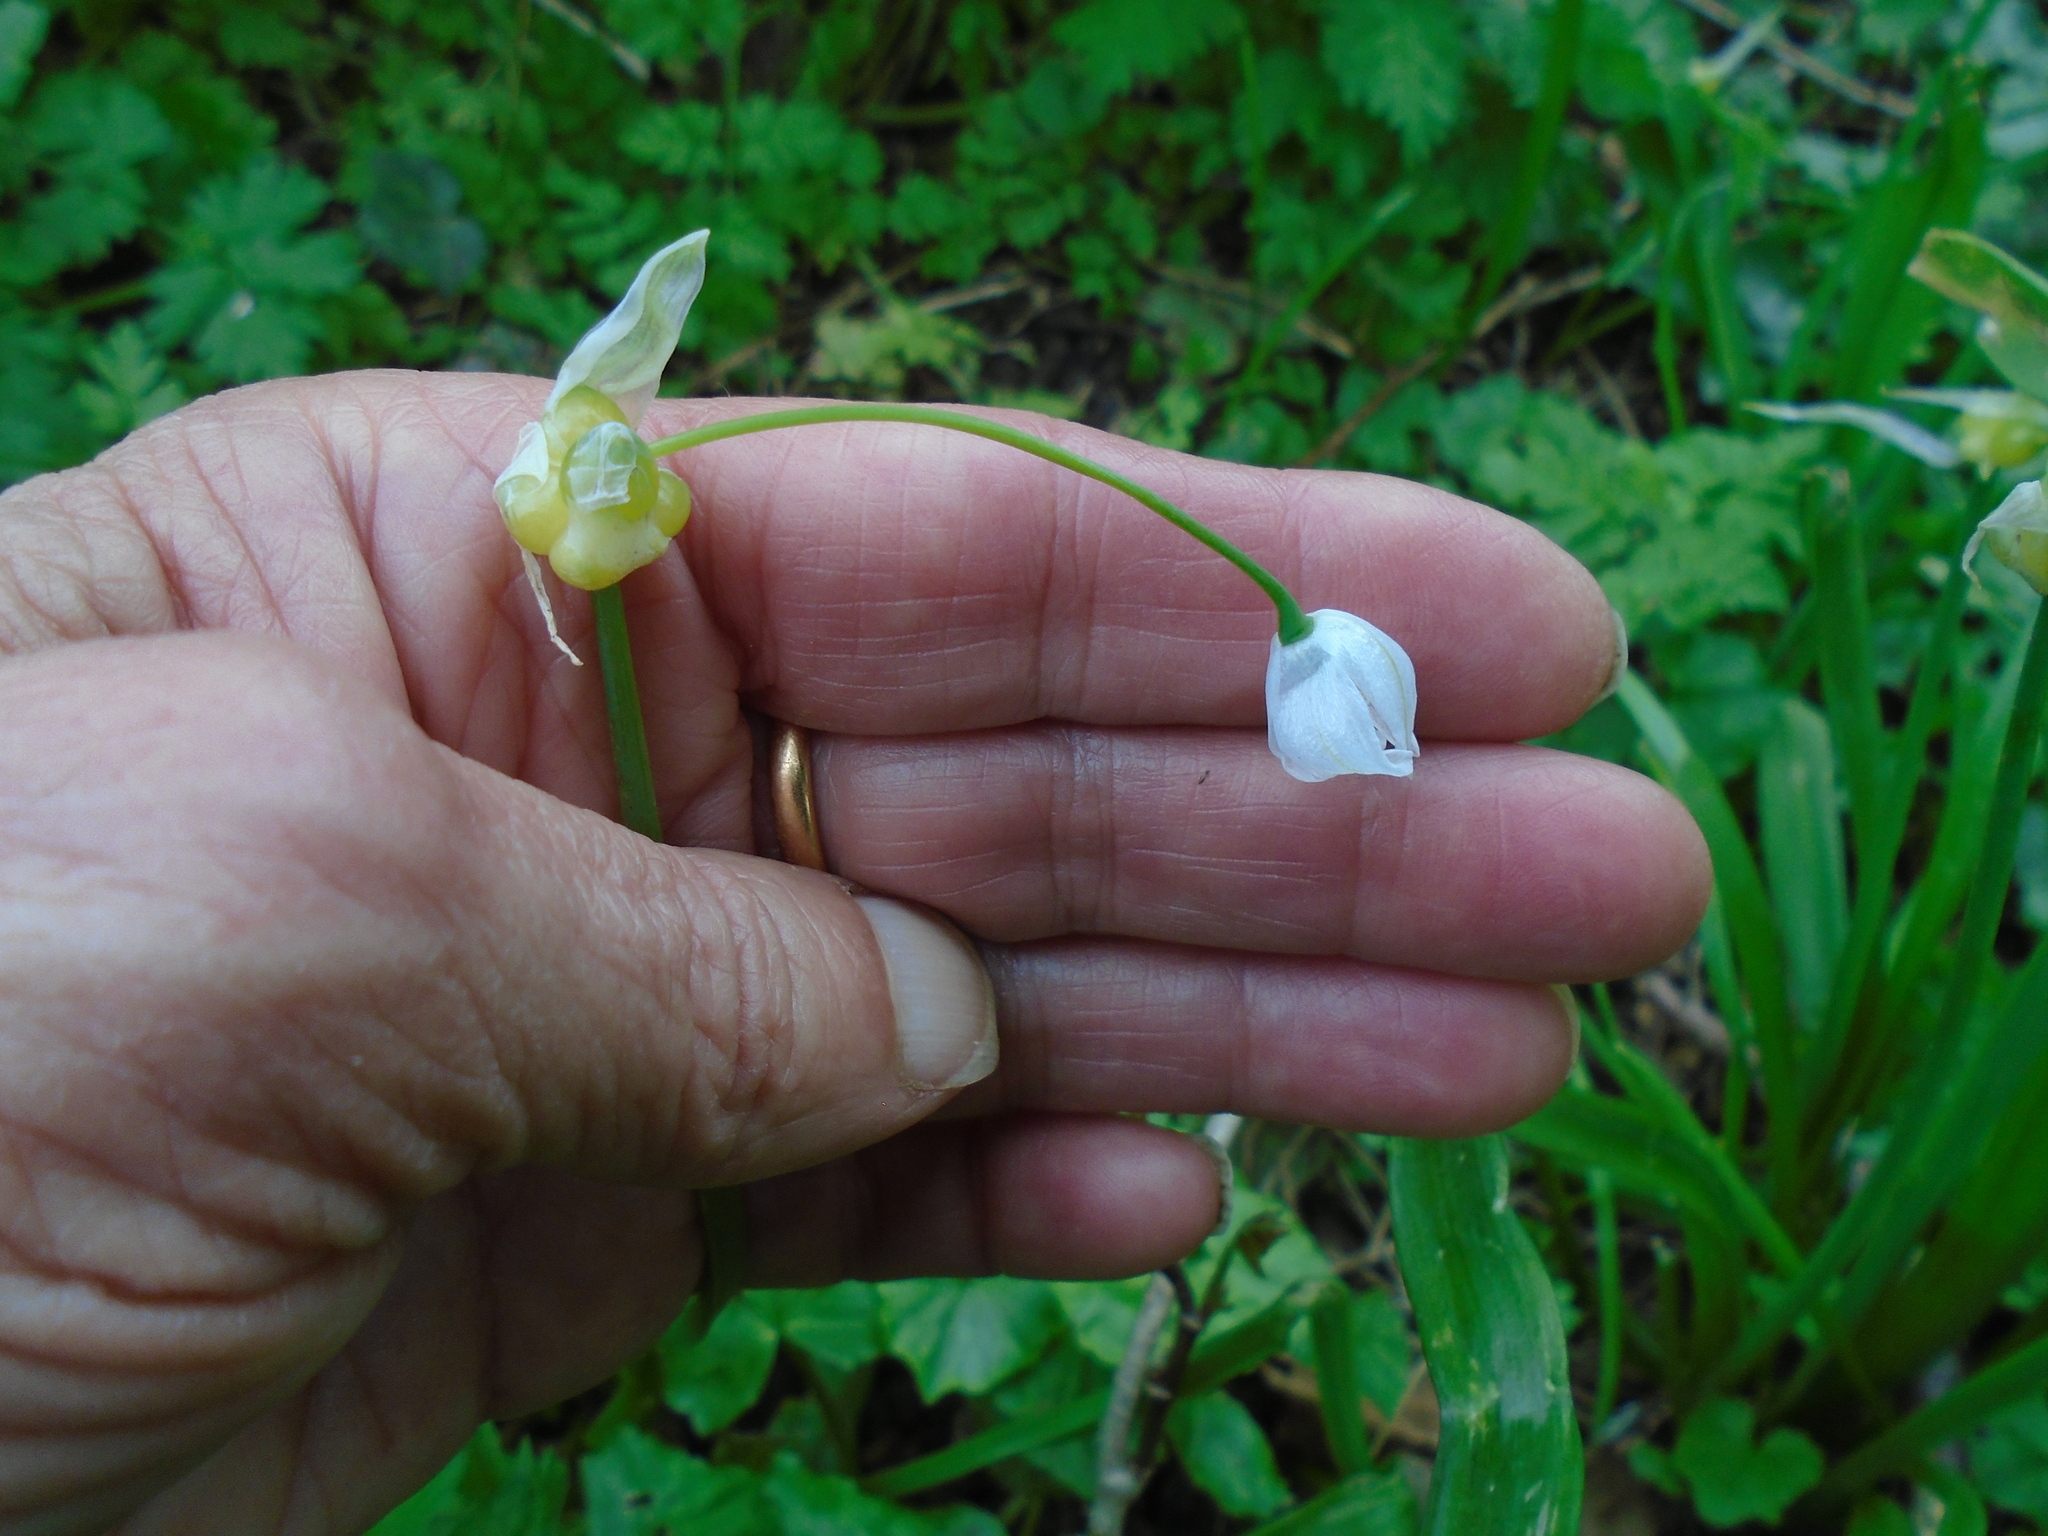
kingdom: Plantae
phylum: Tracheophyta
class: Liliopsida
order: Asparagales
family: Amaryllidaceae
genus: Allium
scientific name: Allium paradoxum
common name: Few-flowered garlic
